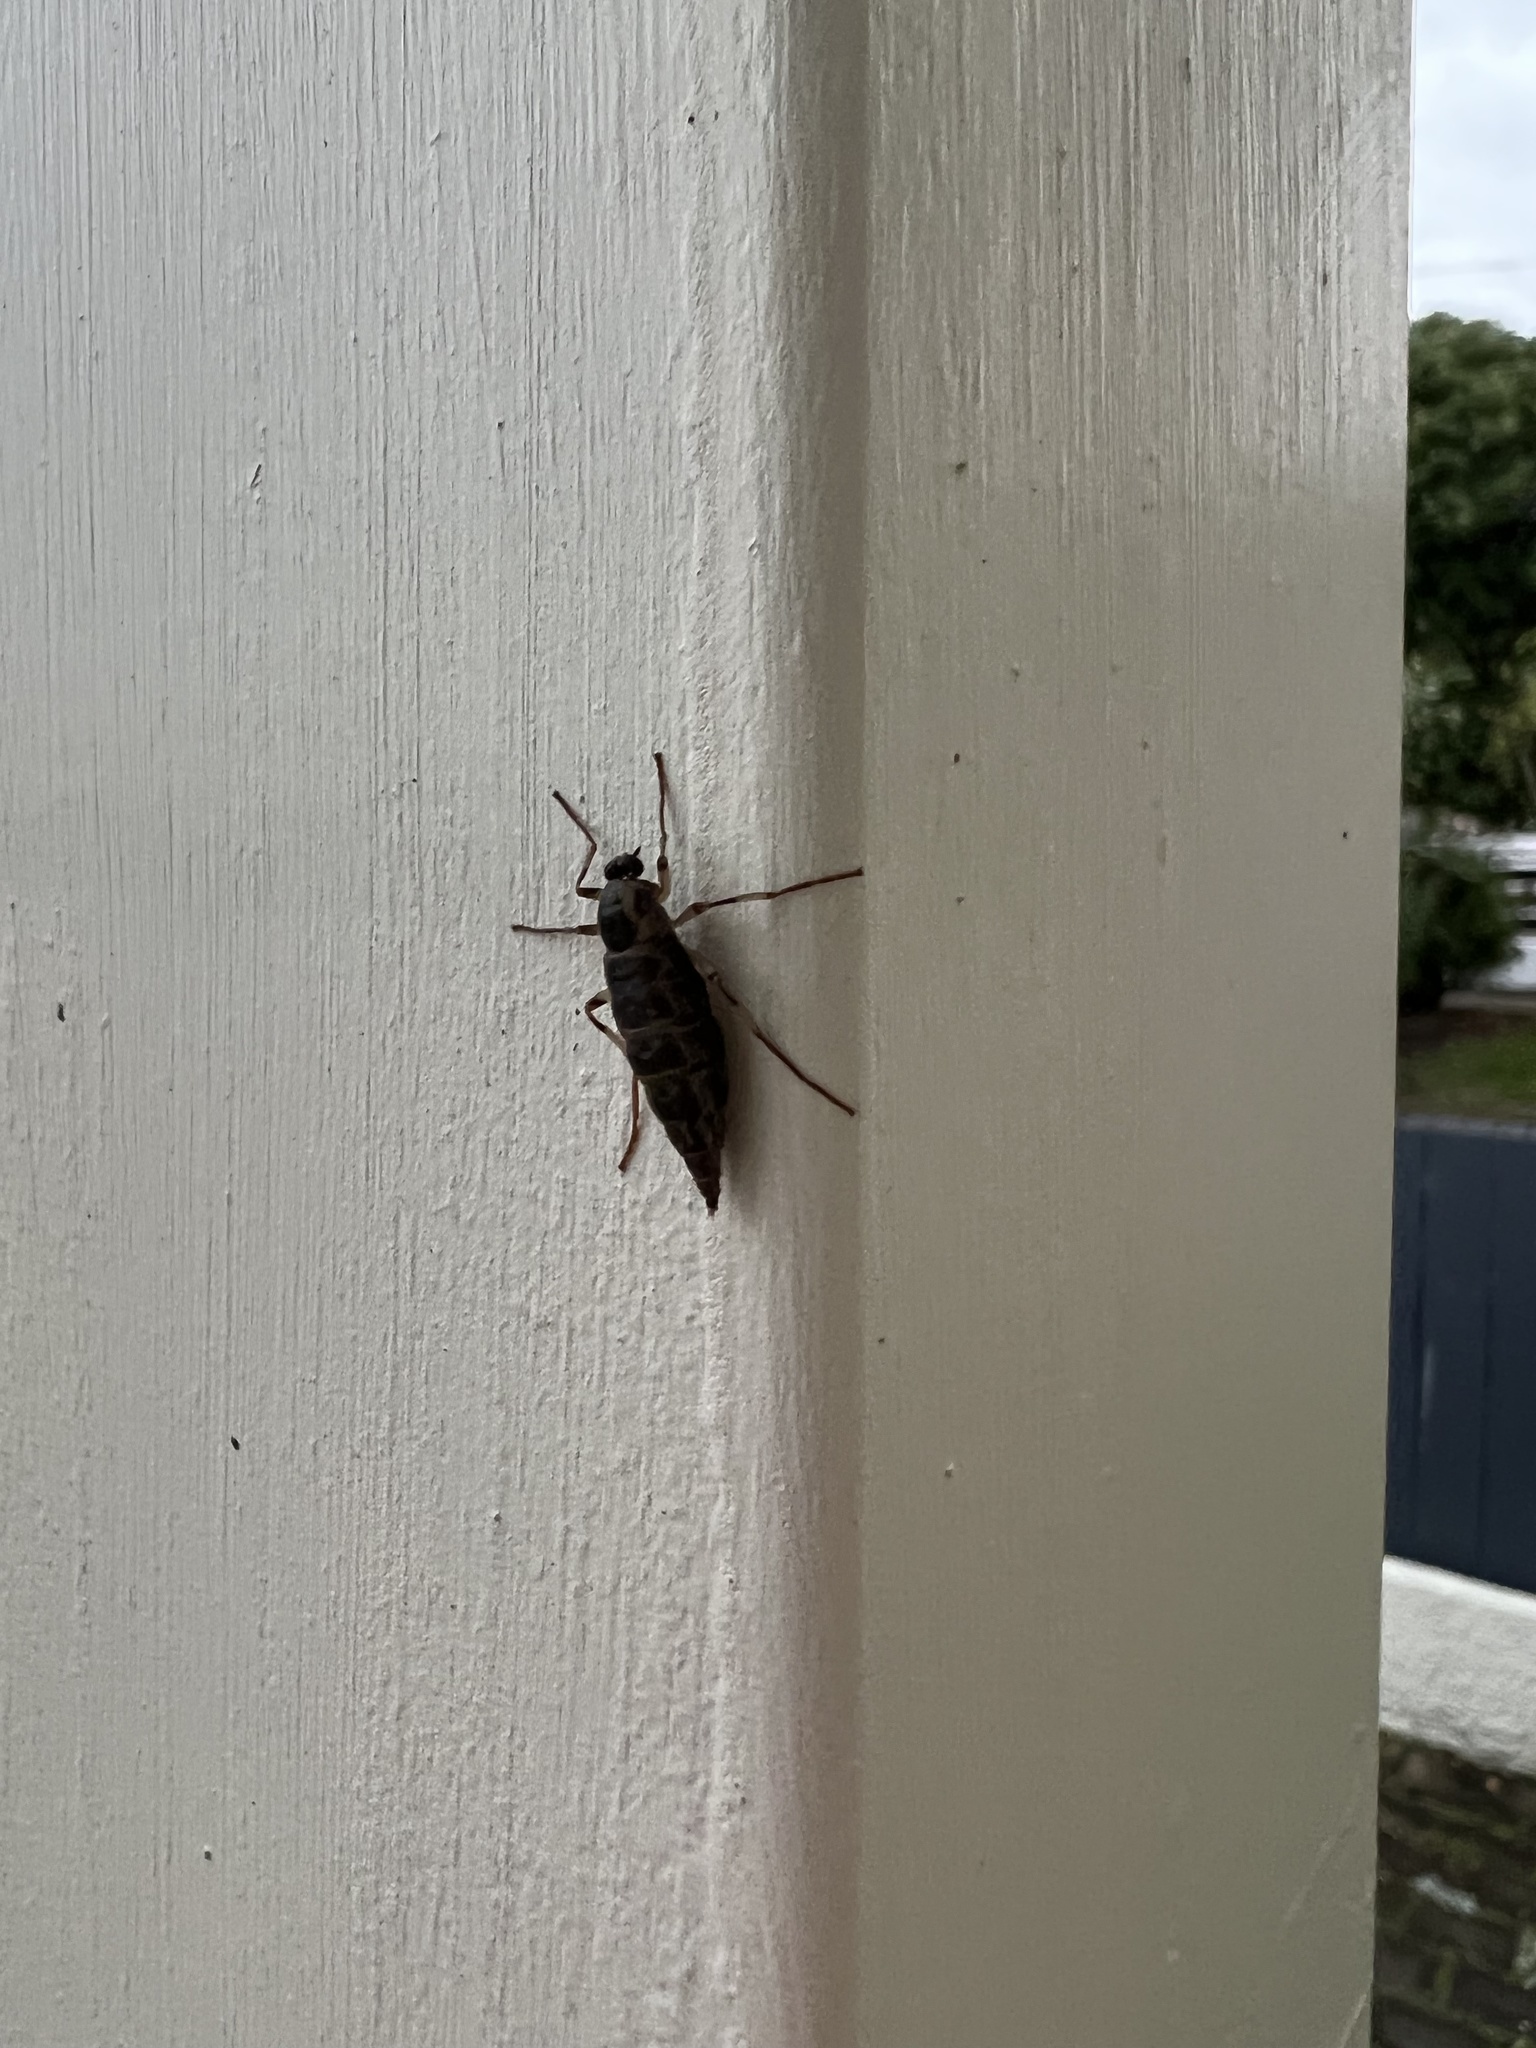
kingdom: Animalia
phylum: Arthropoda
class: Insecta
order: Diptera
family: Stratiomyidae
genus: Boreoides
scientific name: Boreoides tasmaniensis
